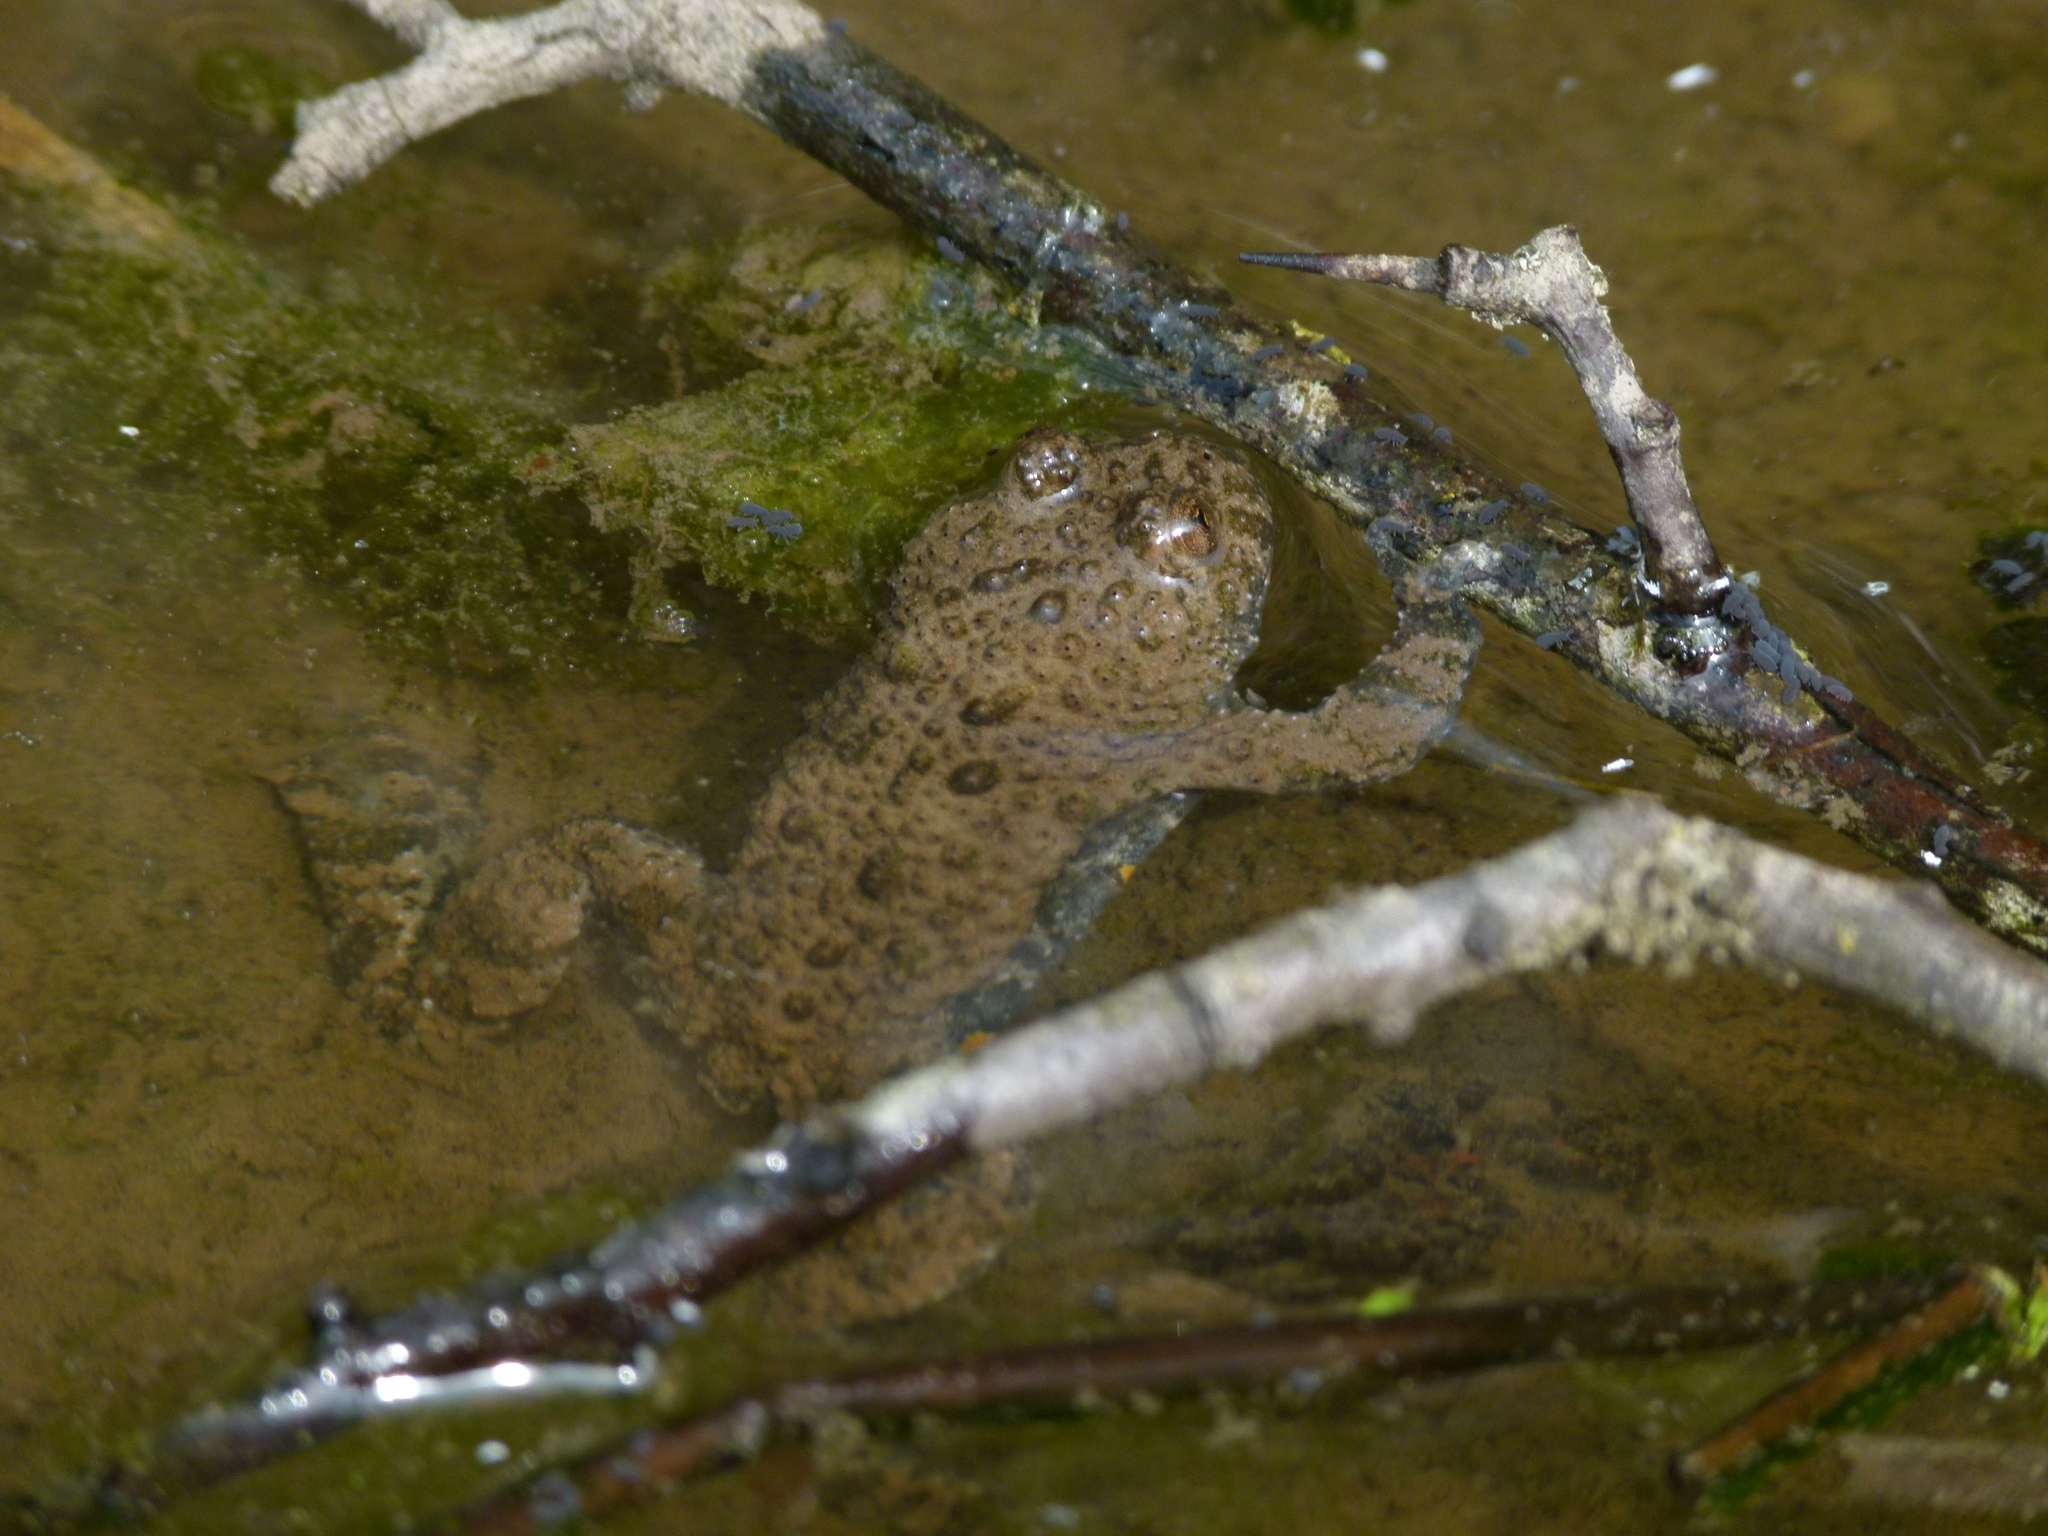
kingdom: Animalia
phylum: Chordata
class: Amphibia
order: Anura
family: Bombinatoridae
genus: Bombina
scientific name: Bombina variegata
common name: Yellow-bellied toad
